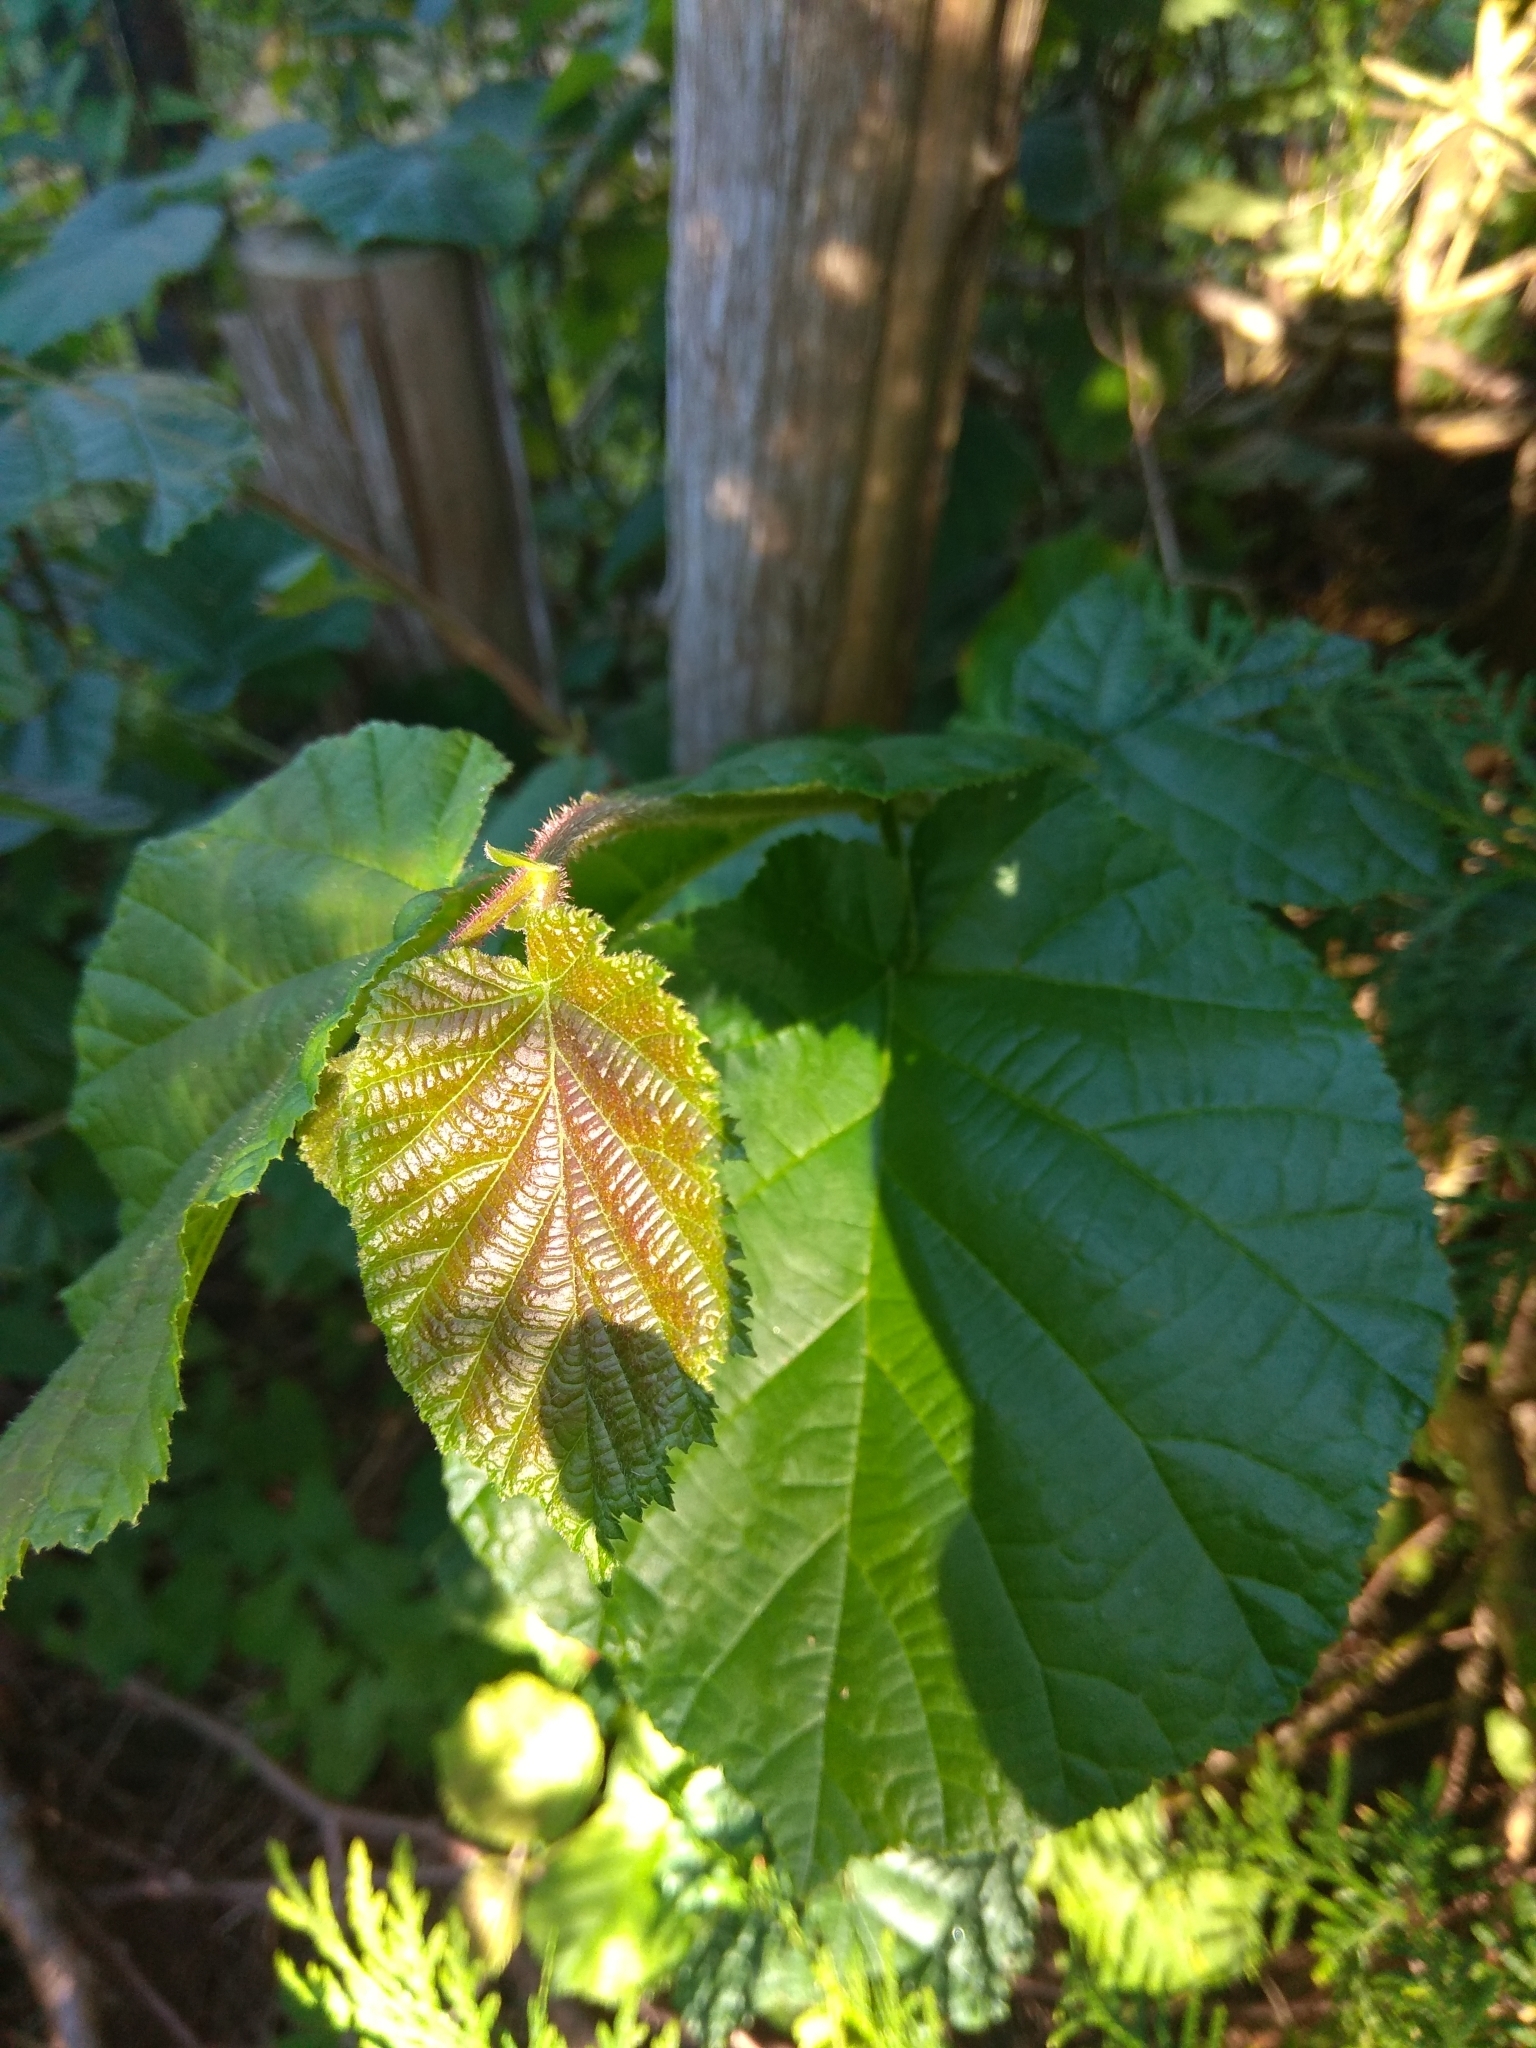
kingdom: Plantae
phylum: Tracheophyta
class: Magnoliopsida
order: Fagales
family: Betulaceae
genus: Corylus
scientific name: Corylus avellana
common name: European hazel
